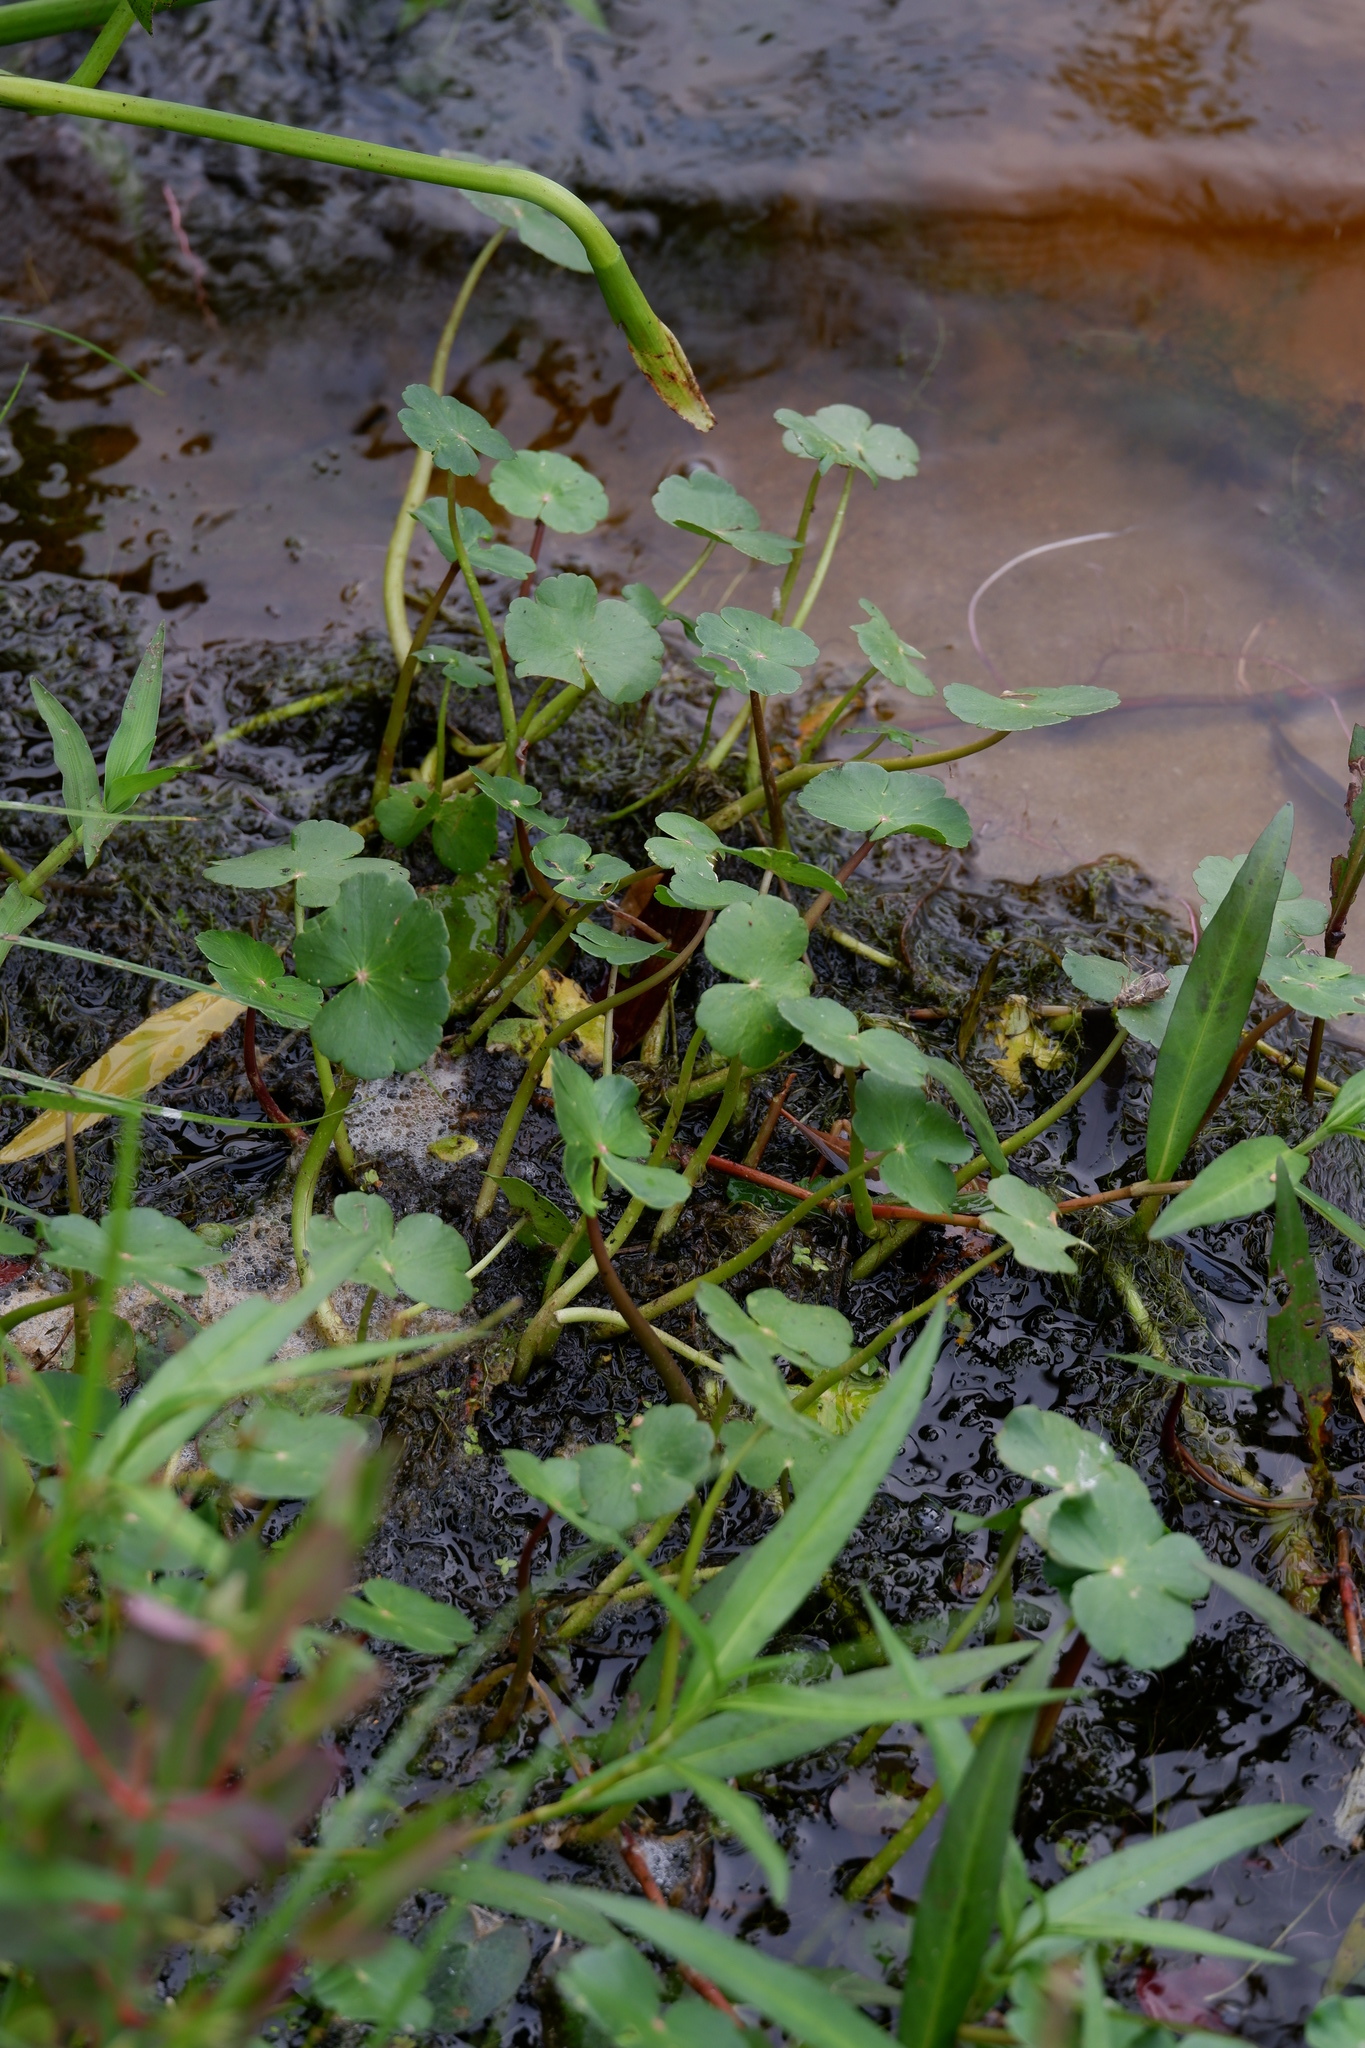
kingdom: Plantae
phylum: Tracheophyta
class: Magnoliopsida
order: Apiales
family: Araliaceae
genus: Hydrocotyle
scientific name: Hydrocotyle ranunculoides
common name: Floating pennywort
